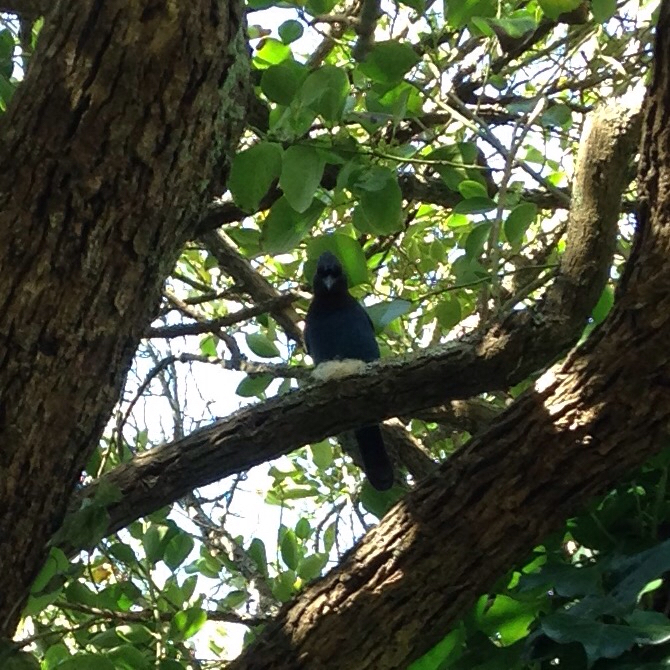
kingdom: Animalia
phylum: Chordata
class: Aves
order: Passeriformes
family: Corvidae
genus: Cyanocitta
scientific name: Cyanocitta stelleri
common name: Steller's jay
